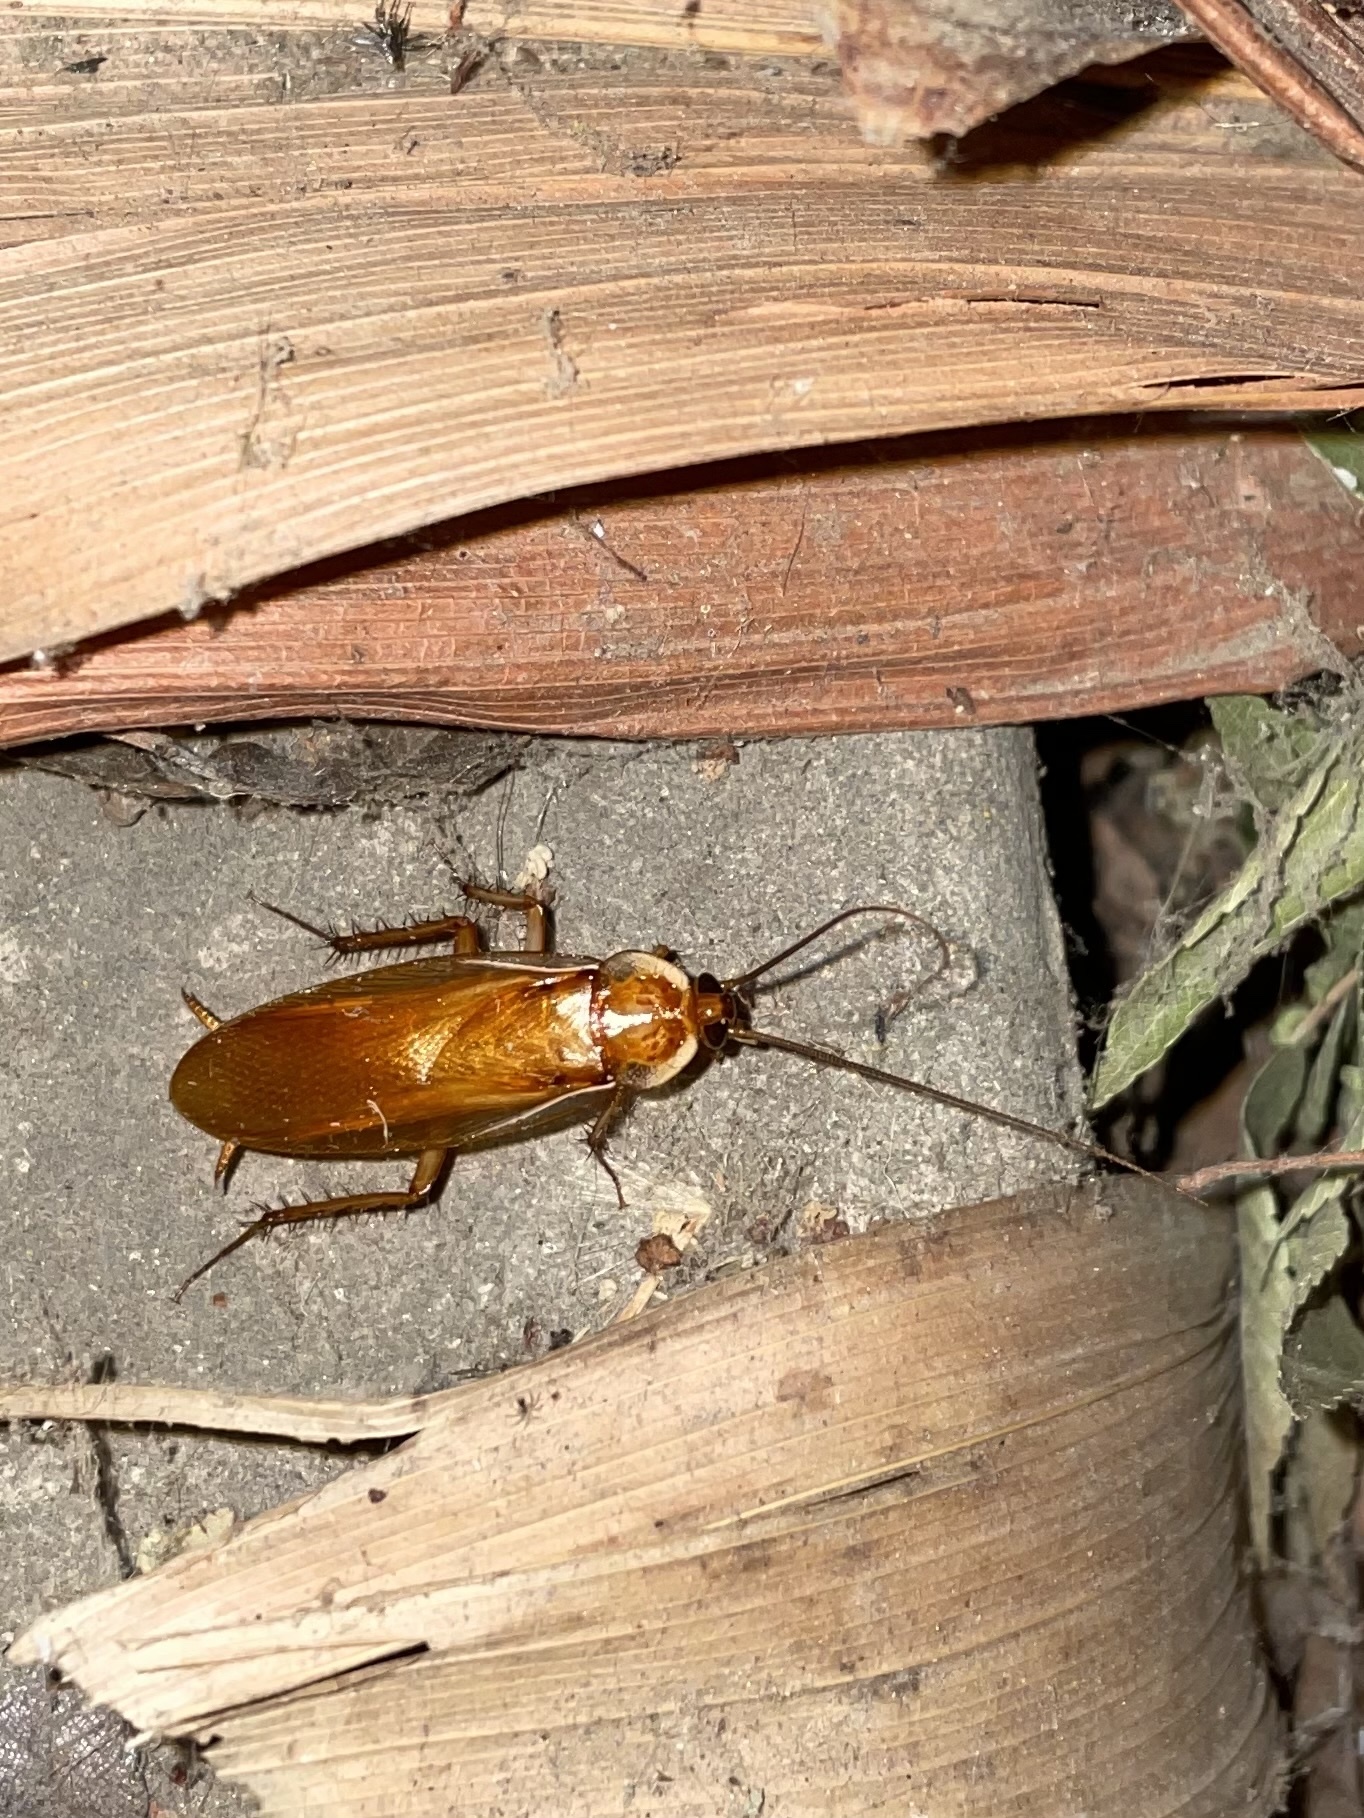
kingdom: Animalia
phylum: Arthropoda
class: Insecta
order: Blattodea
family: Blattidae
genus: Periplaneta
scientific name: Periplaneta lateralis
